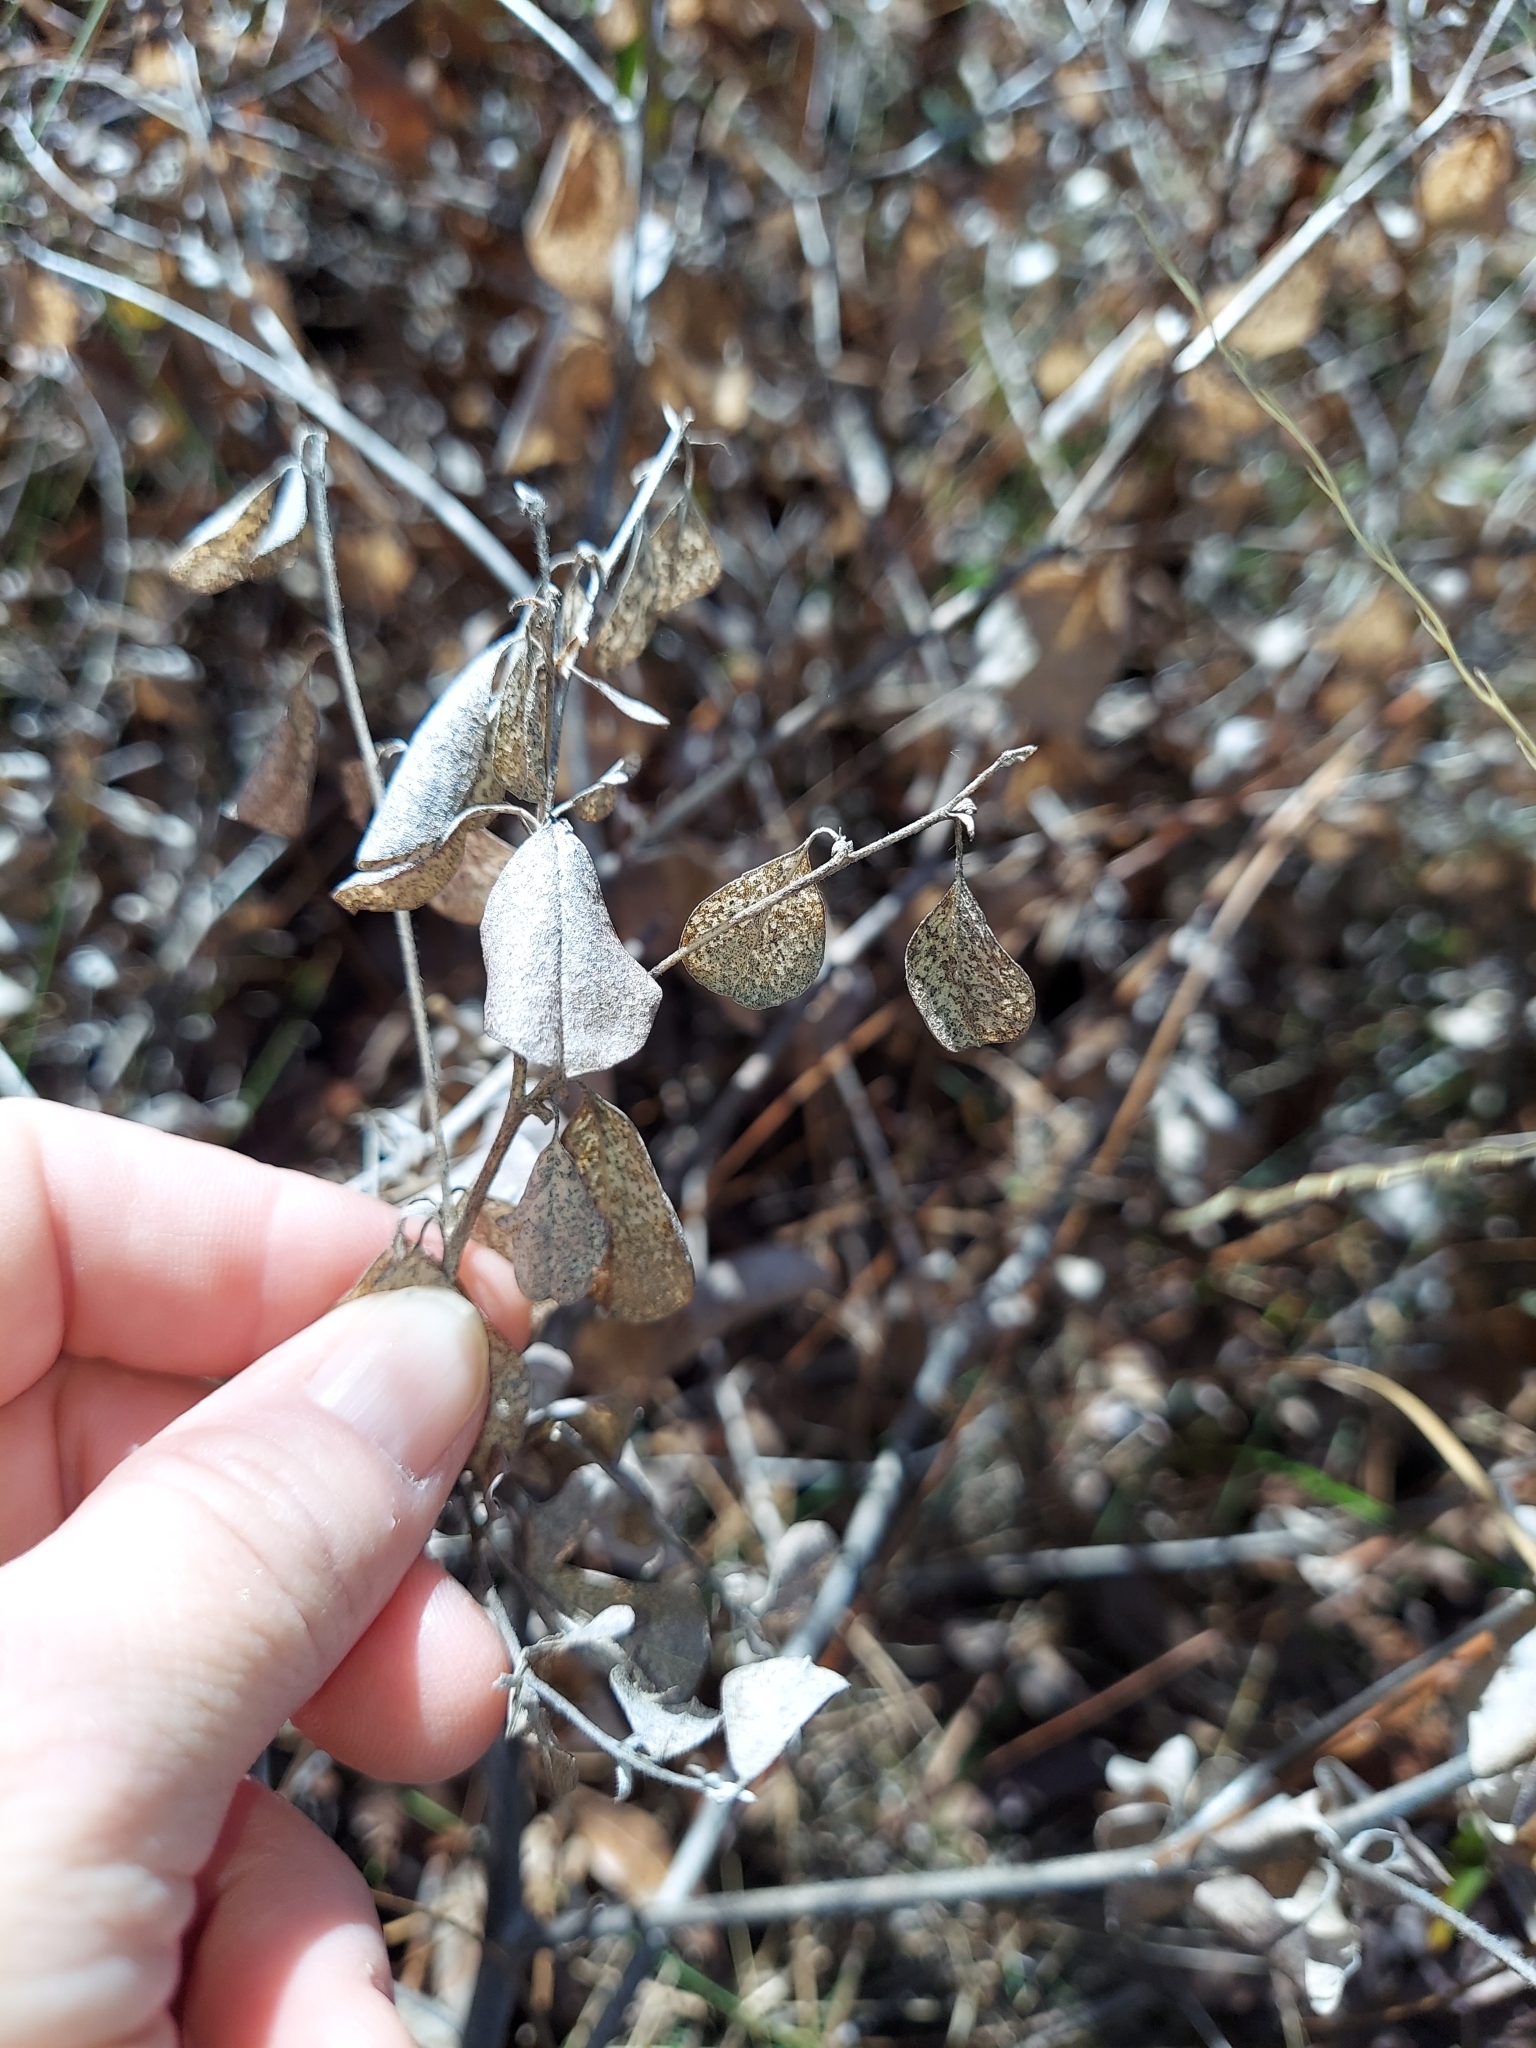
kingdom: Plantae
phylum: Tracheophyta
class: Magnoliopsida
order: Fabales
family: Fabaceae
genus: Pediomelum
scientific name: Pediomelum canescens
